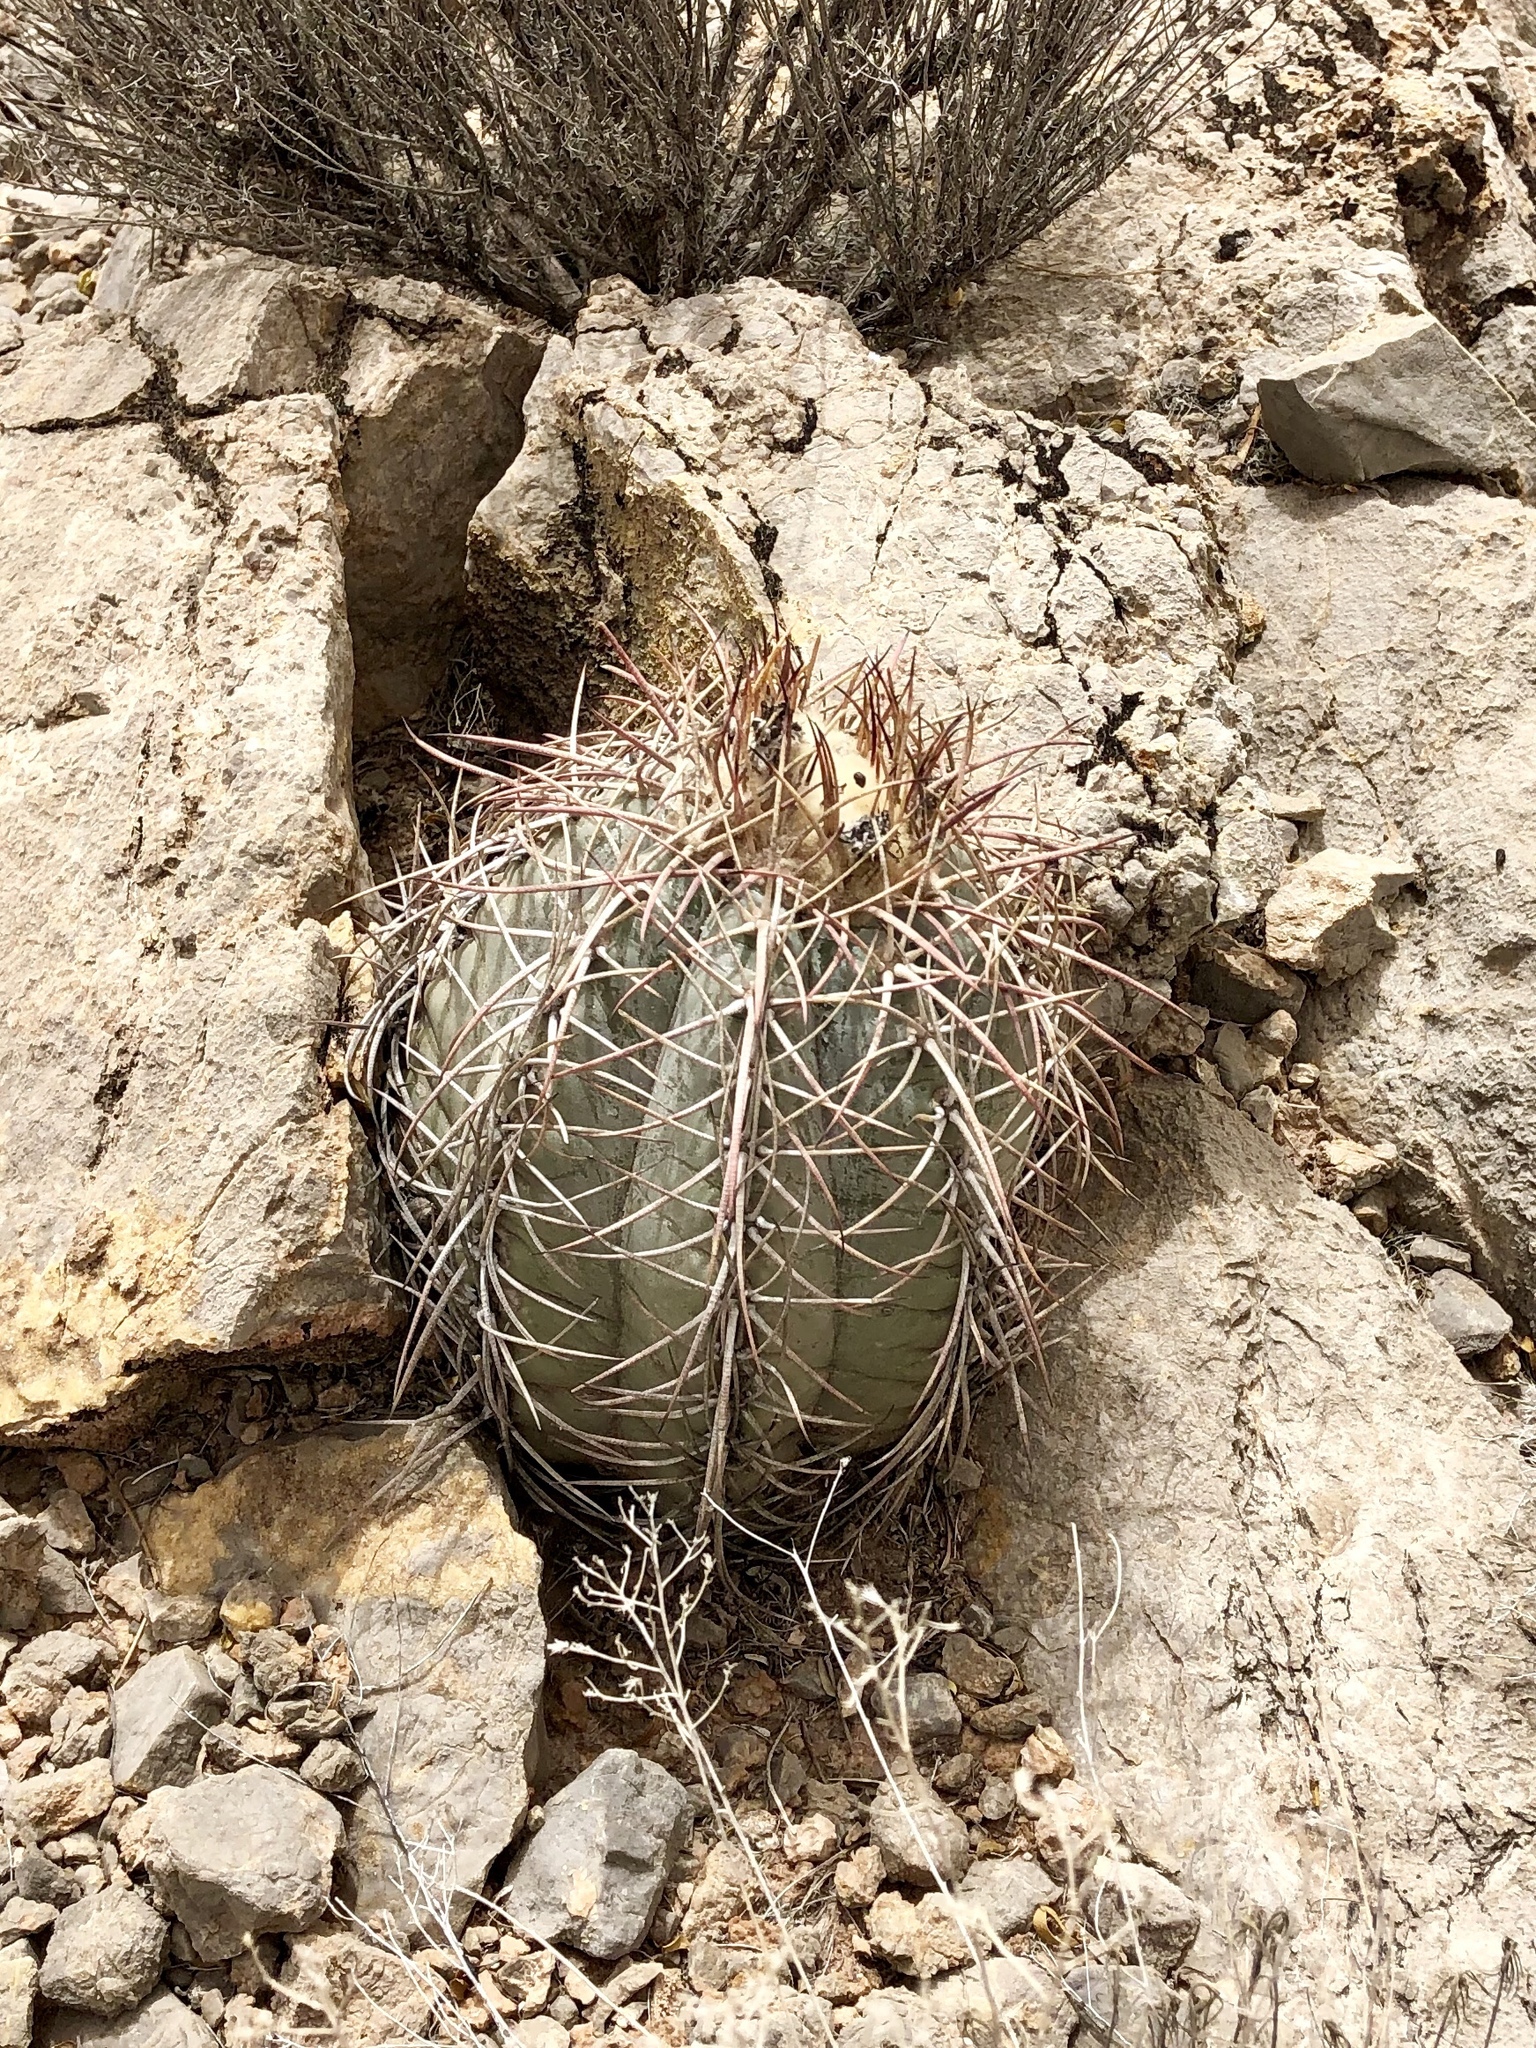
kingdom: Plantae
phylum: Tracheophyta
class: Magnoliopsida
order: Caryophyllales
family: Cactaceae
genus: Echinocactus
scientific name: Echinocactus horizonthalonius
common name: Devilshead
